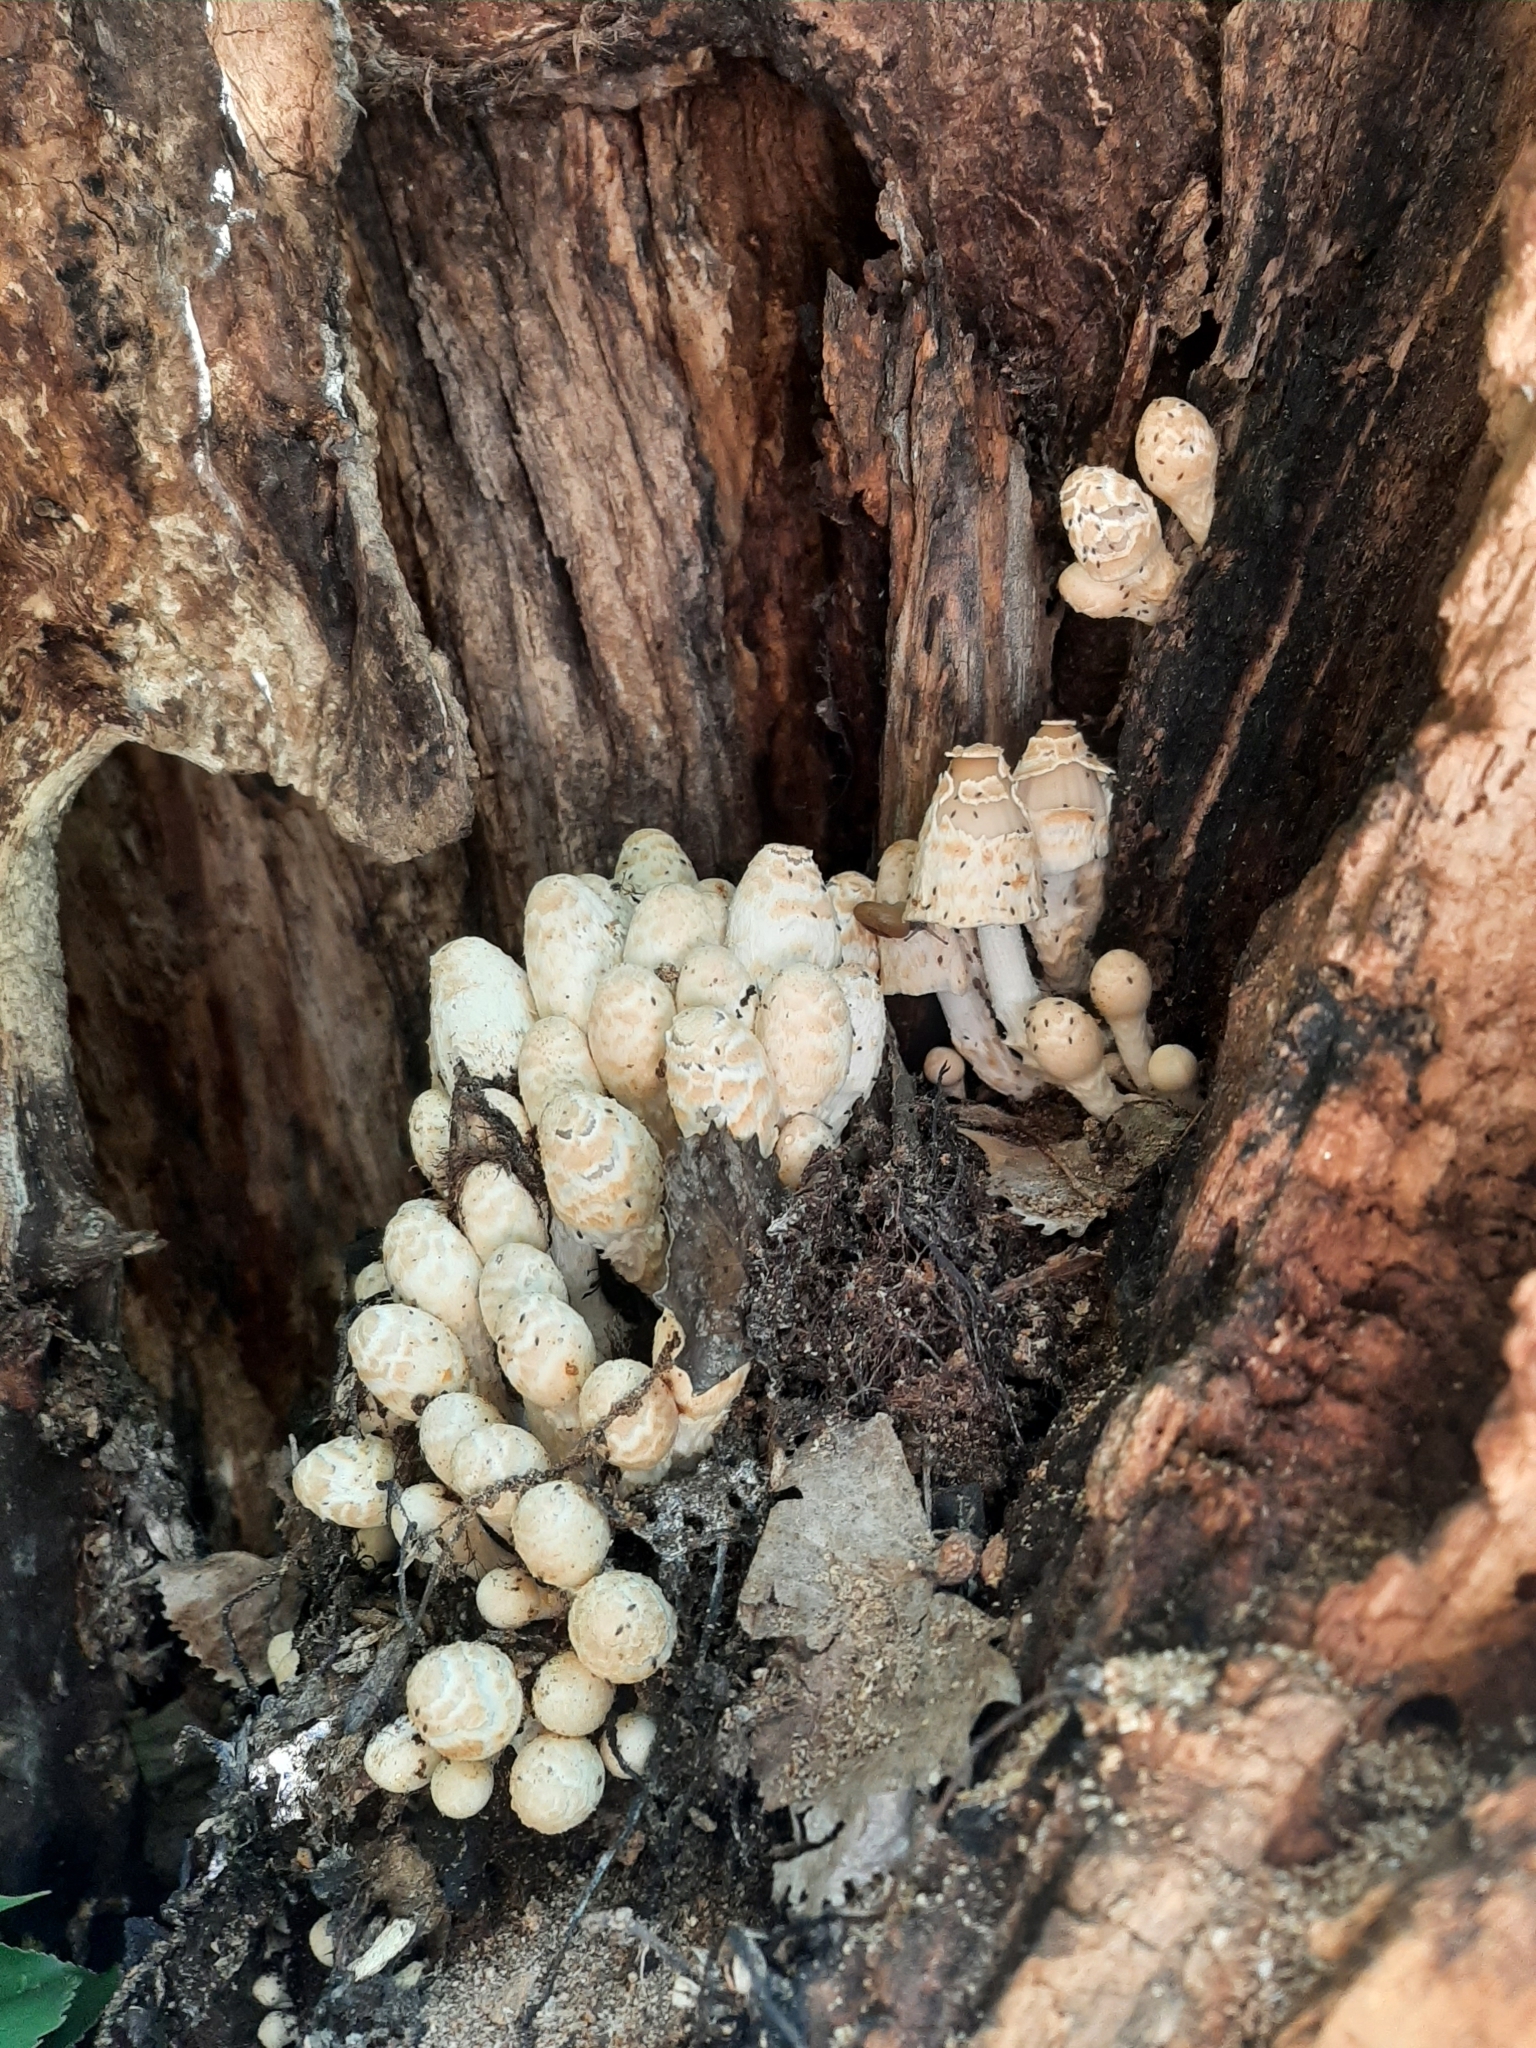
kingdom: Fungi
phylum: Basidiomycota
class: Agaricomycetes
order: Agaricales
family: Psathyrellaceae
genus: Coprinopsis
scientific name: Coprinopsis variegata
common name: Scaly ink cap
